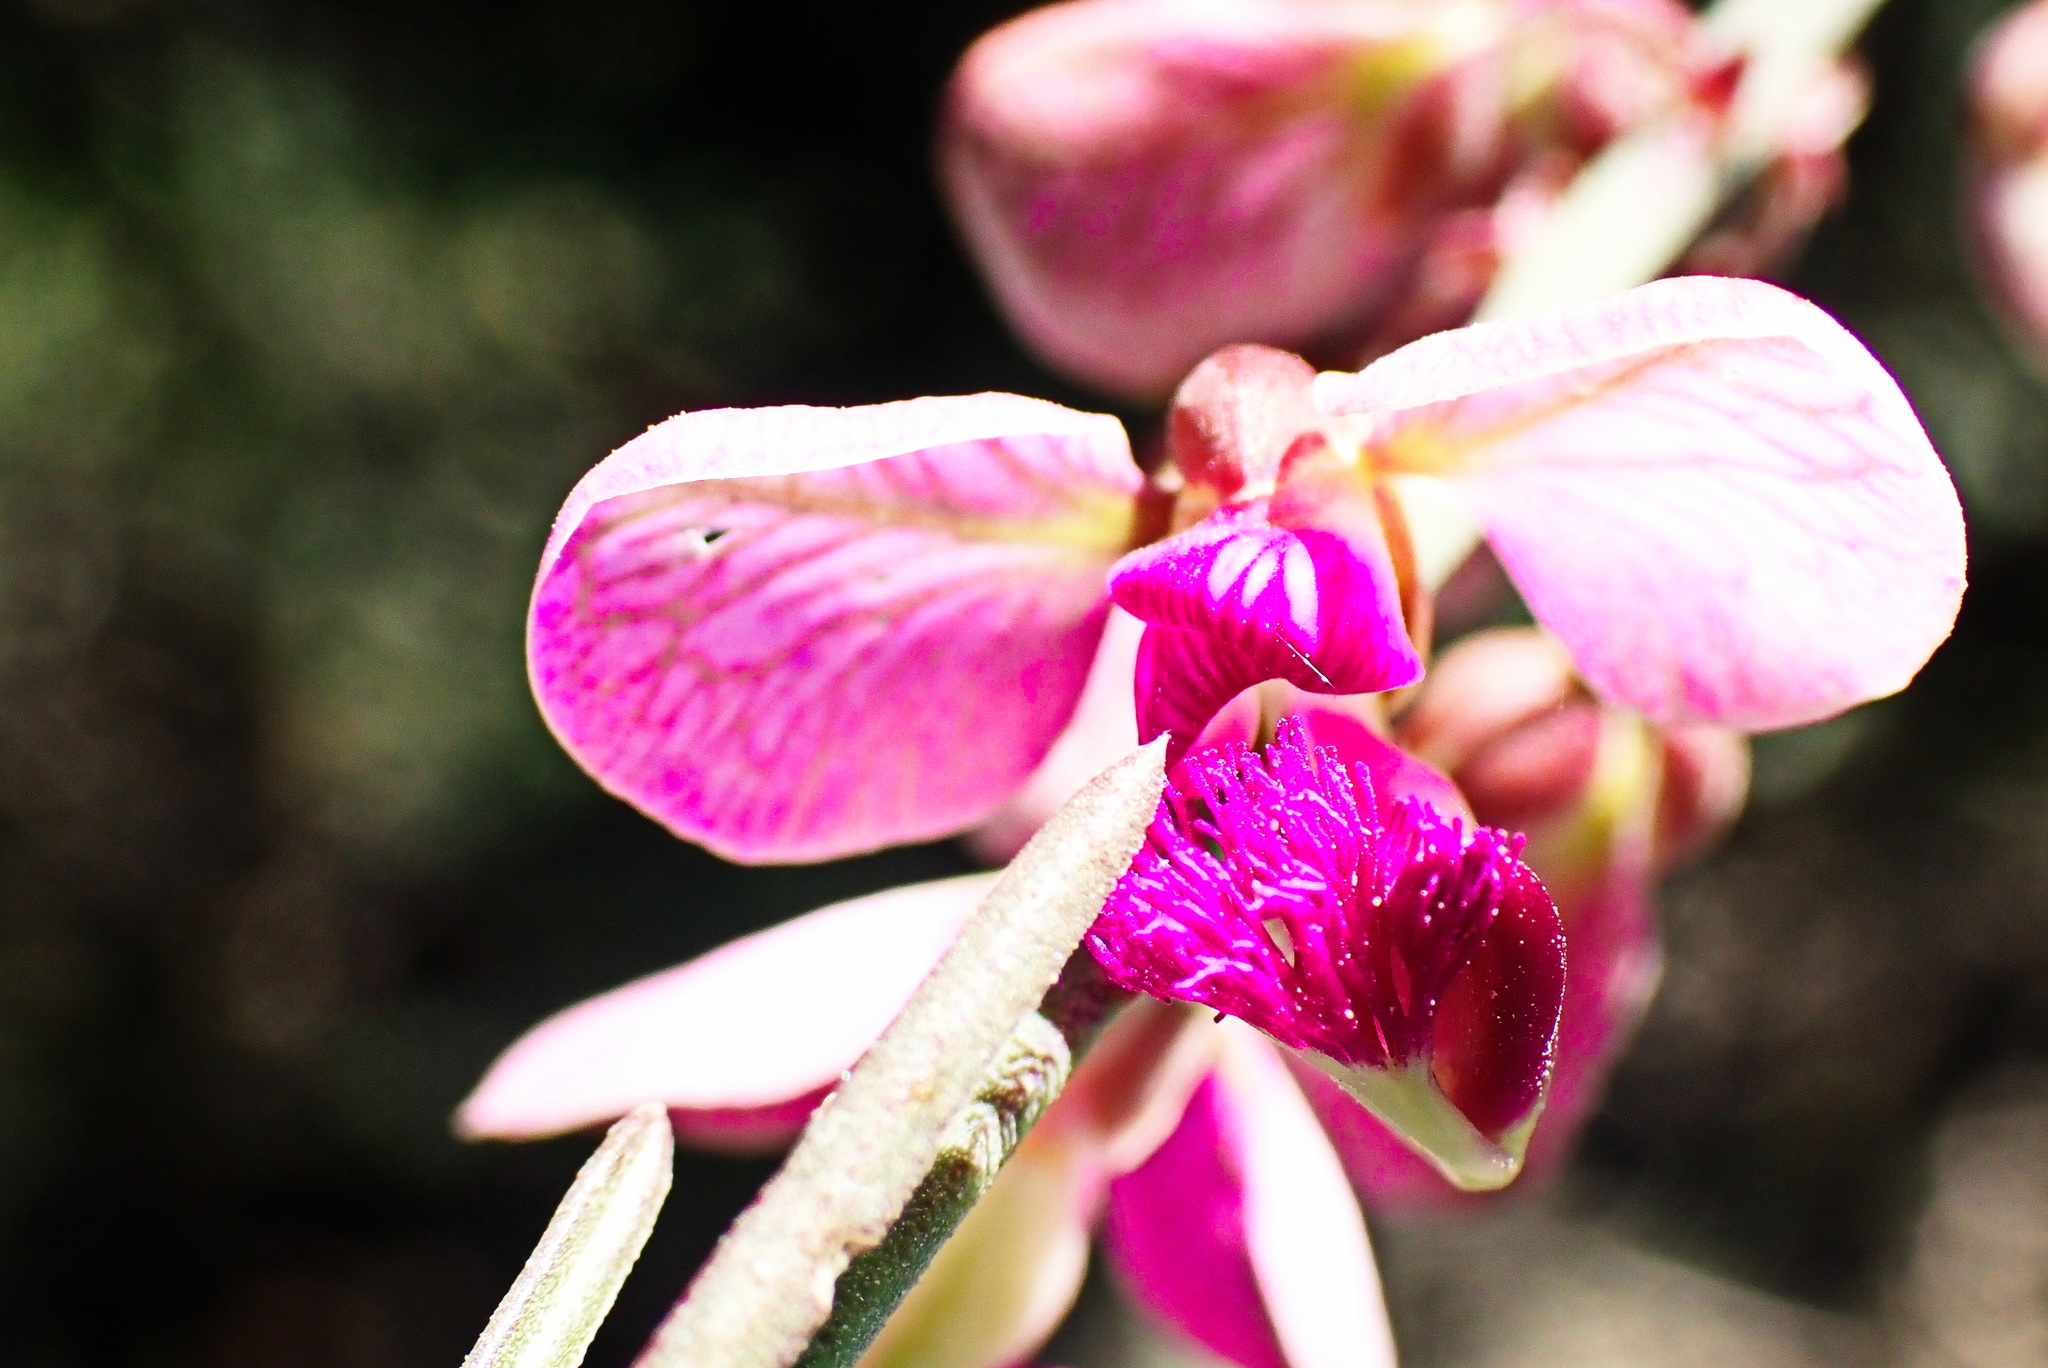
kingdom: Plantae
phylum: Tracheophyta
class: Magnoliopsida
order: Fabales
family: Polygalaceae
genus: Polygala
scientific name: Polygala virgata
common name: Milkwort
